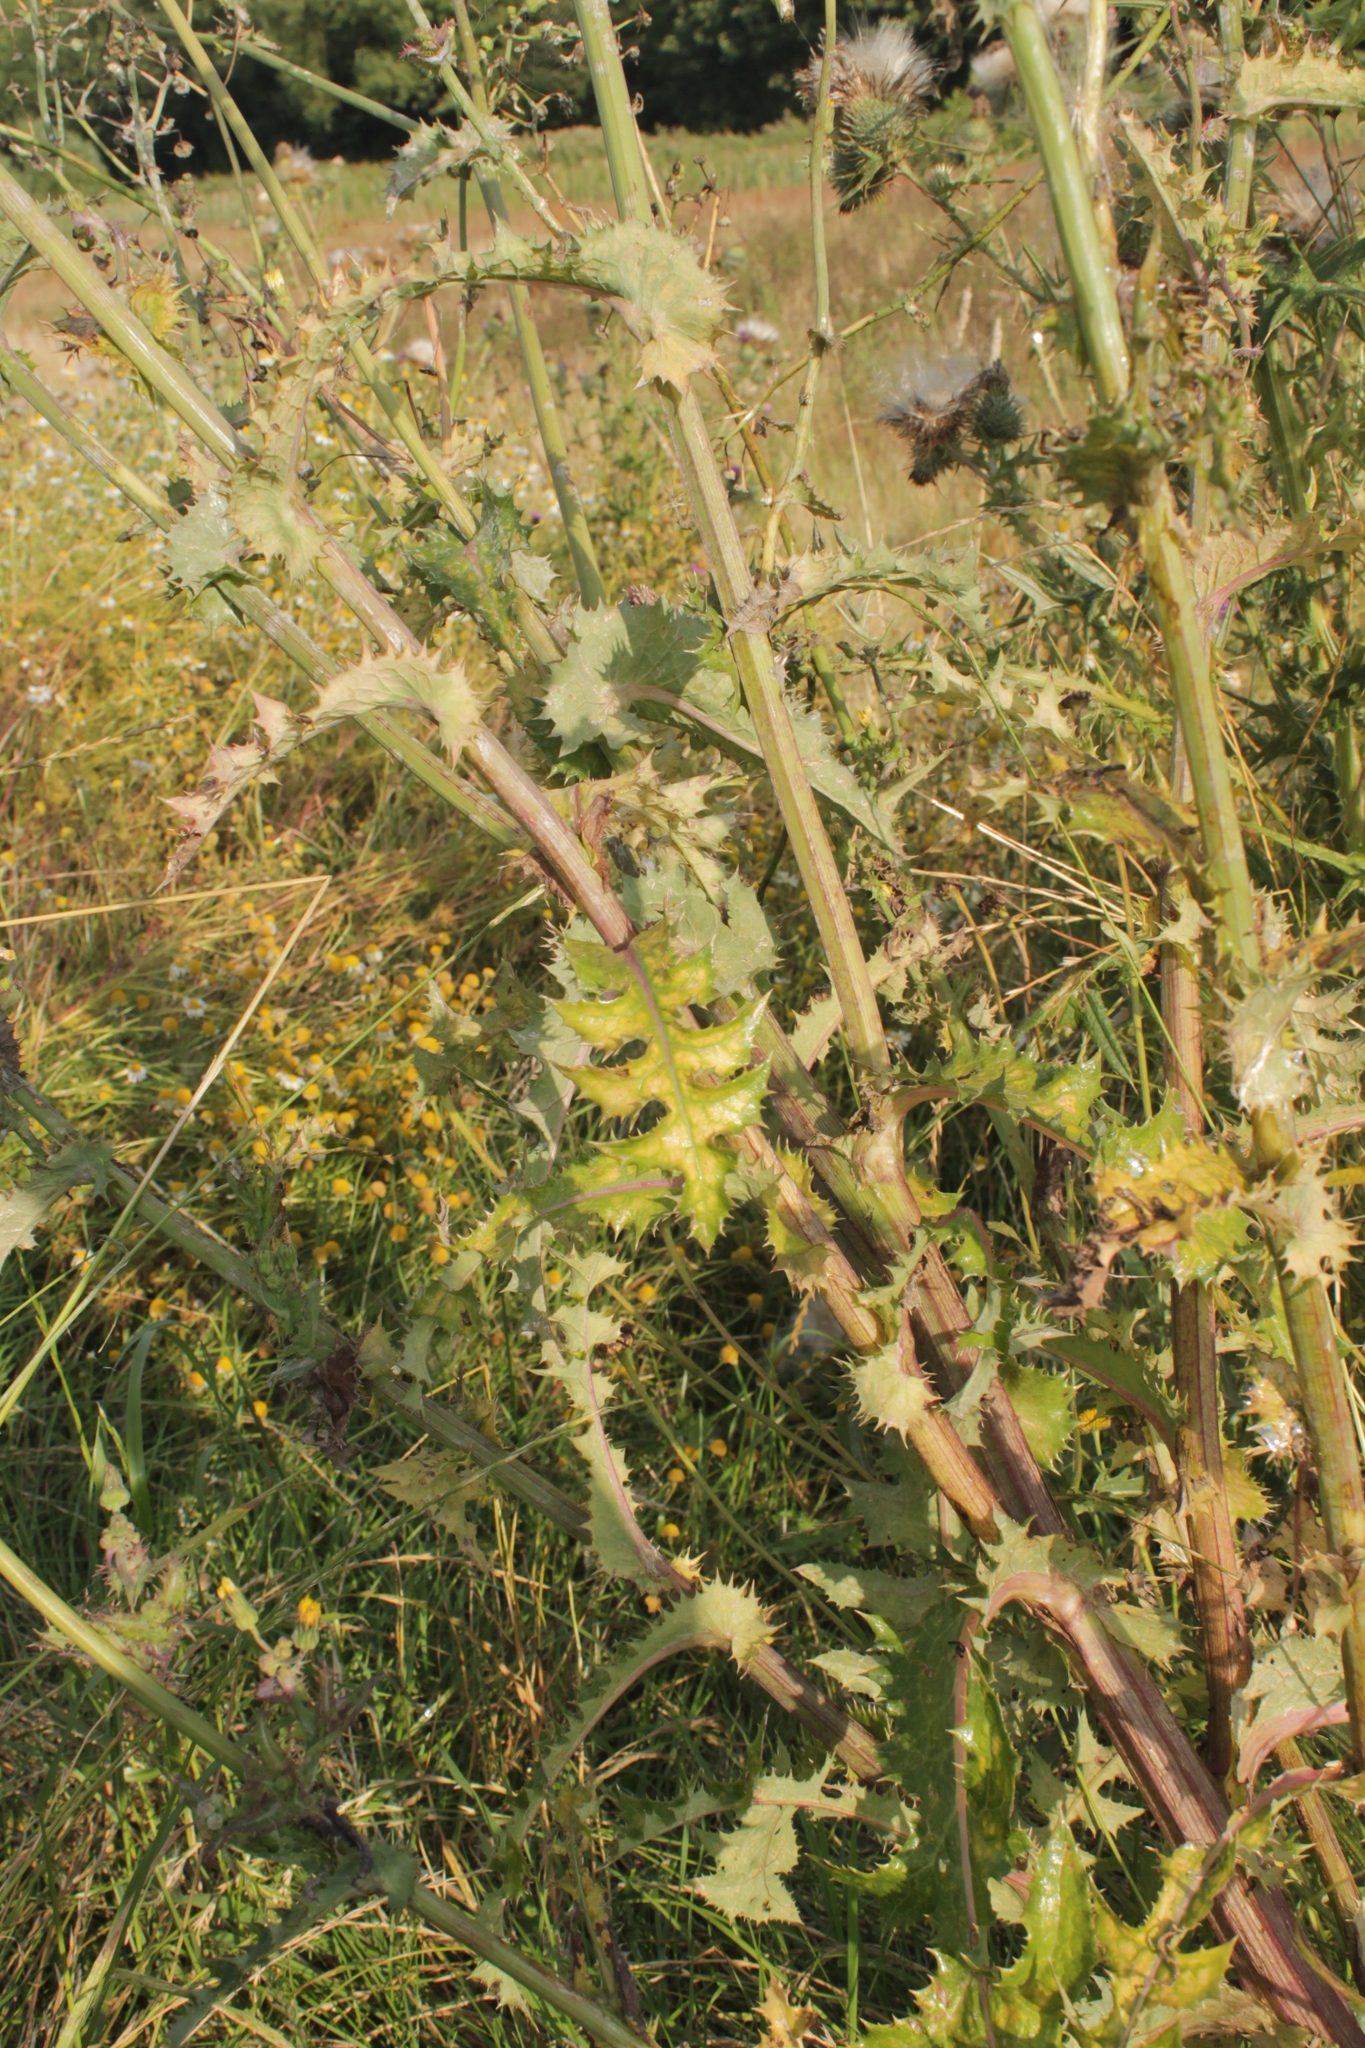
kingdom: Plantae
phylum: Tracheophyta
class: Magnoliopsida
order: Asterales
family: Asteraceae
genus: Sonchus
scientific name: Sonchus asper
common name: Prickly sow-thistle
